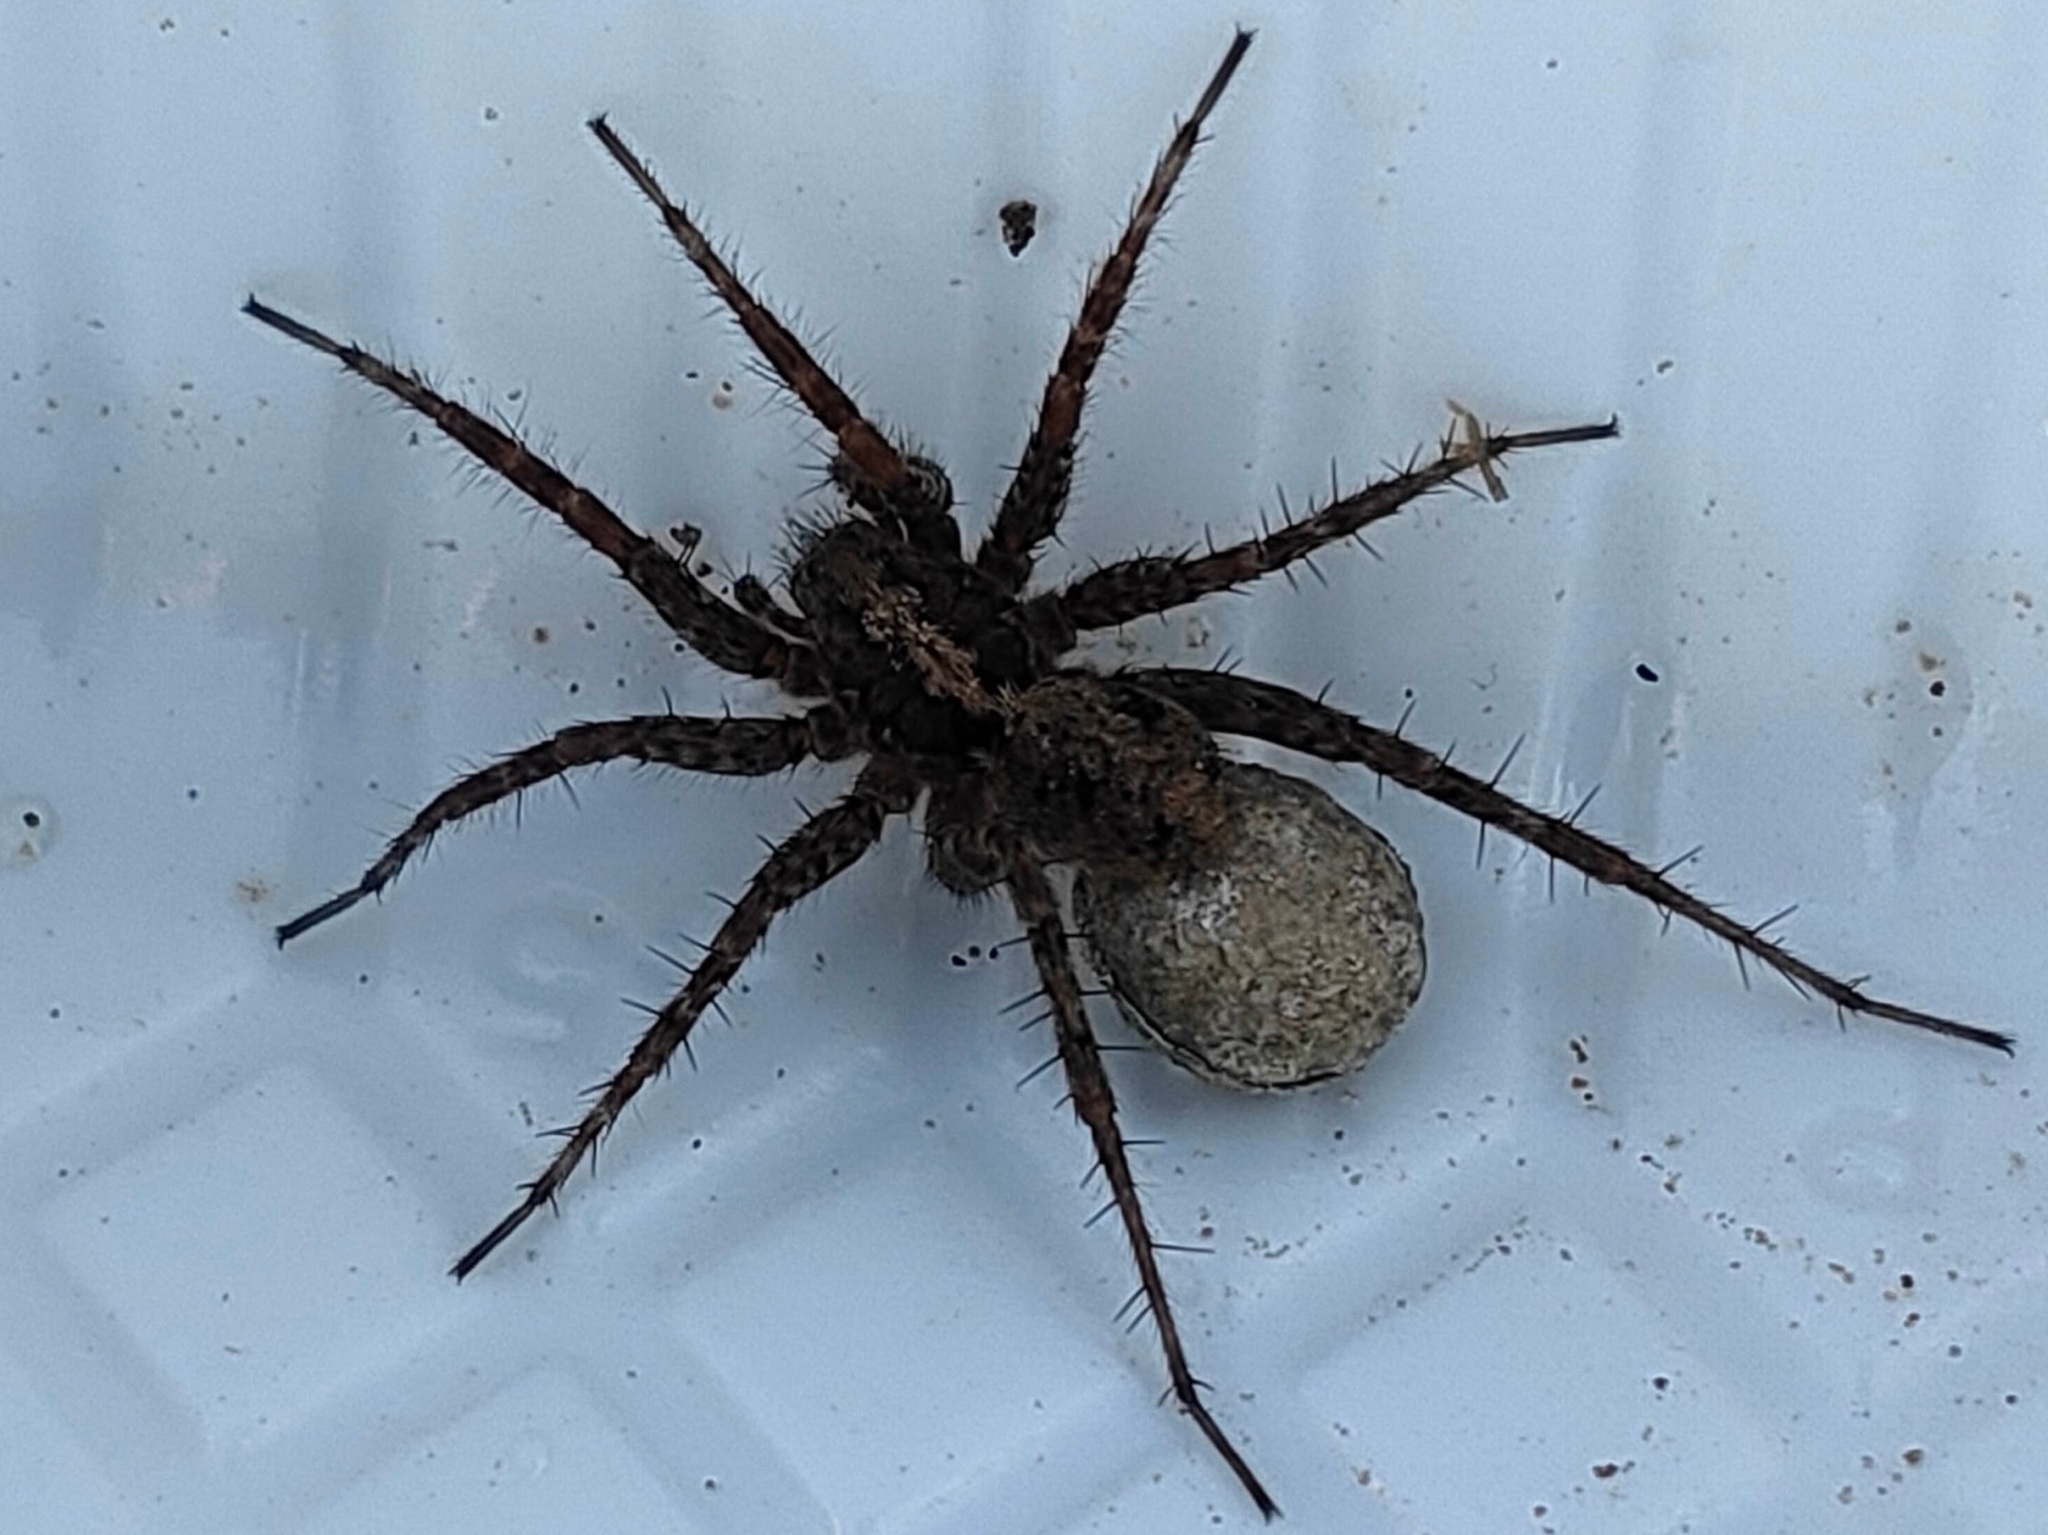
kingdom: Animalia
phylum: Arthropoda
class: Arachnida
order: Araneae
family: Lycosidae
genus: Pardosa
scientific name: Pardosa astrigera
